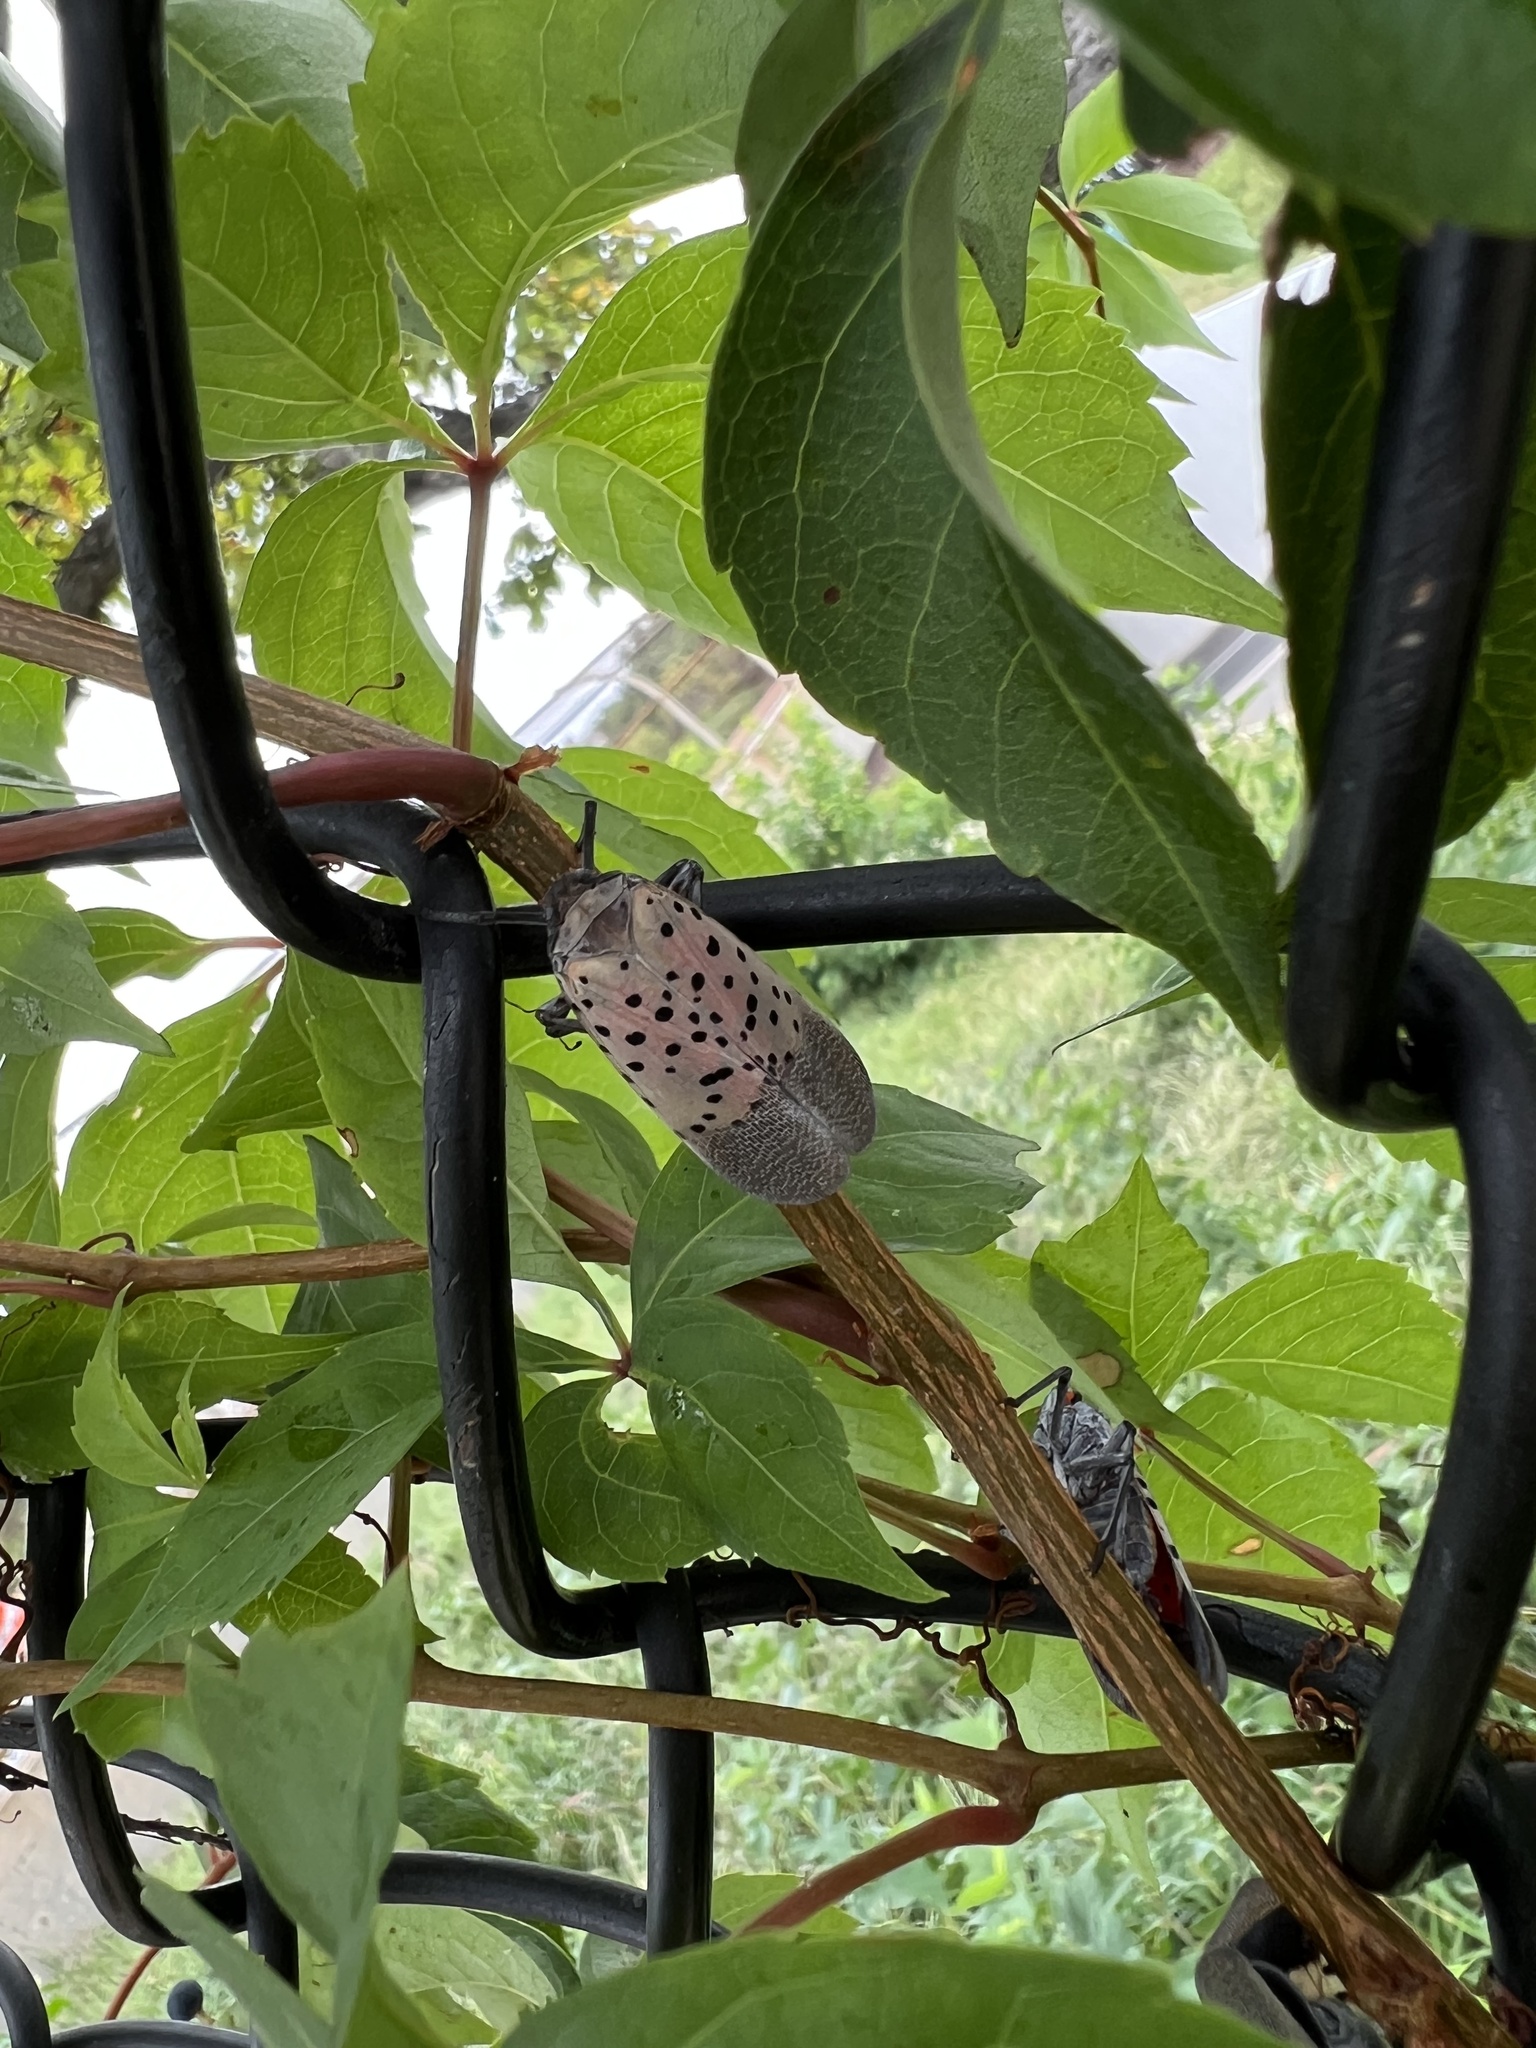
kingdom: Animalia
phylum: Arthropoda
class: Insecta
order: Hemiptera
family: Fulgoridae
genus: Lycorma
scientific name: Lycorma delicatula
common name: Spotted lanternfly
